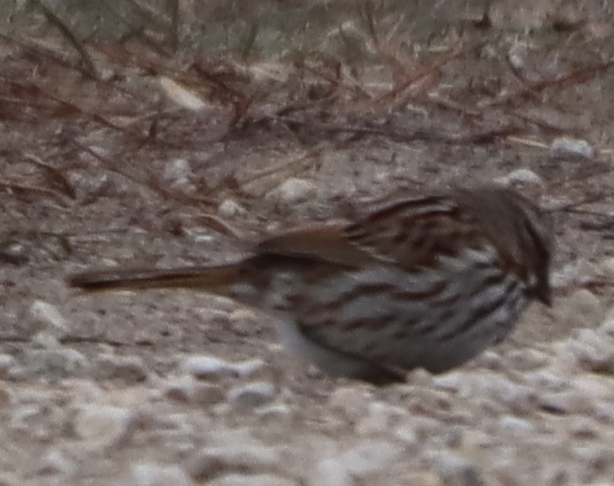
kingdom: Animalia
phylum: Chordata
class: Aves
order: Passeriformes
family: Passerellidae
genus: Melospiza
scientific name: Melospiza melodia
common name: Song sparrow
